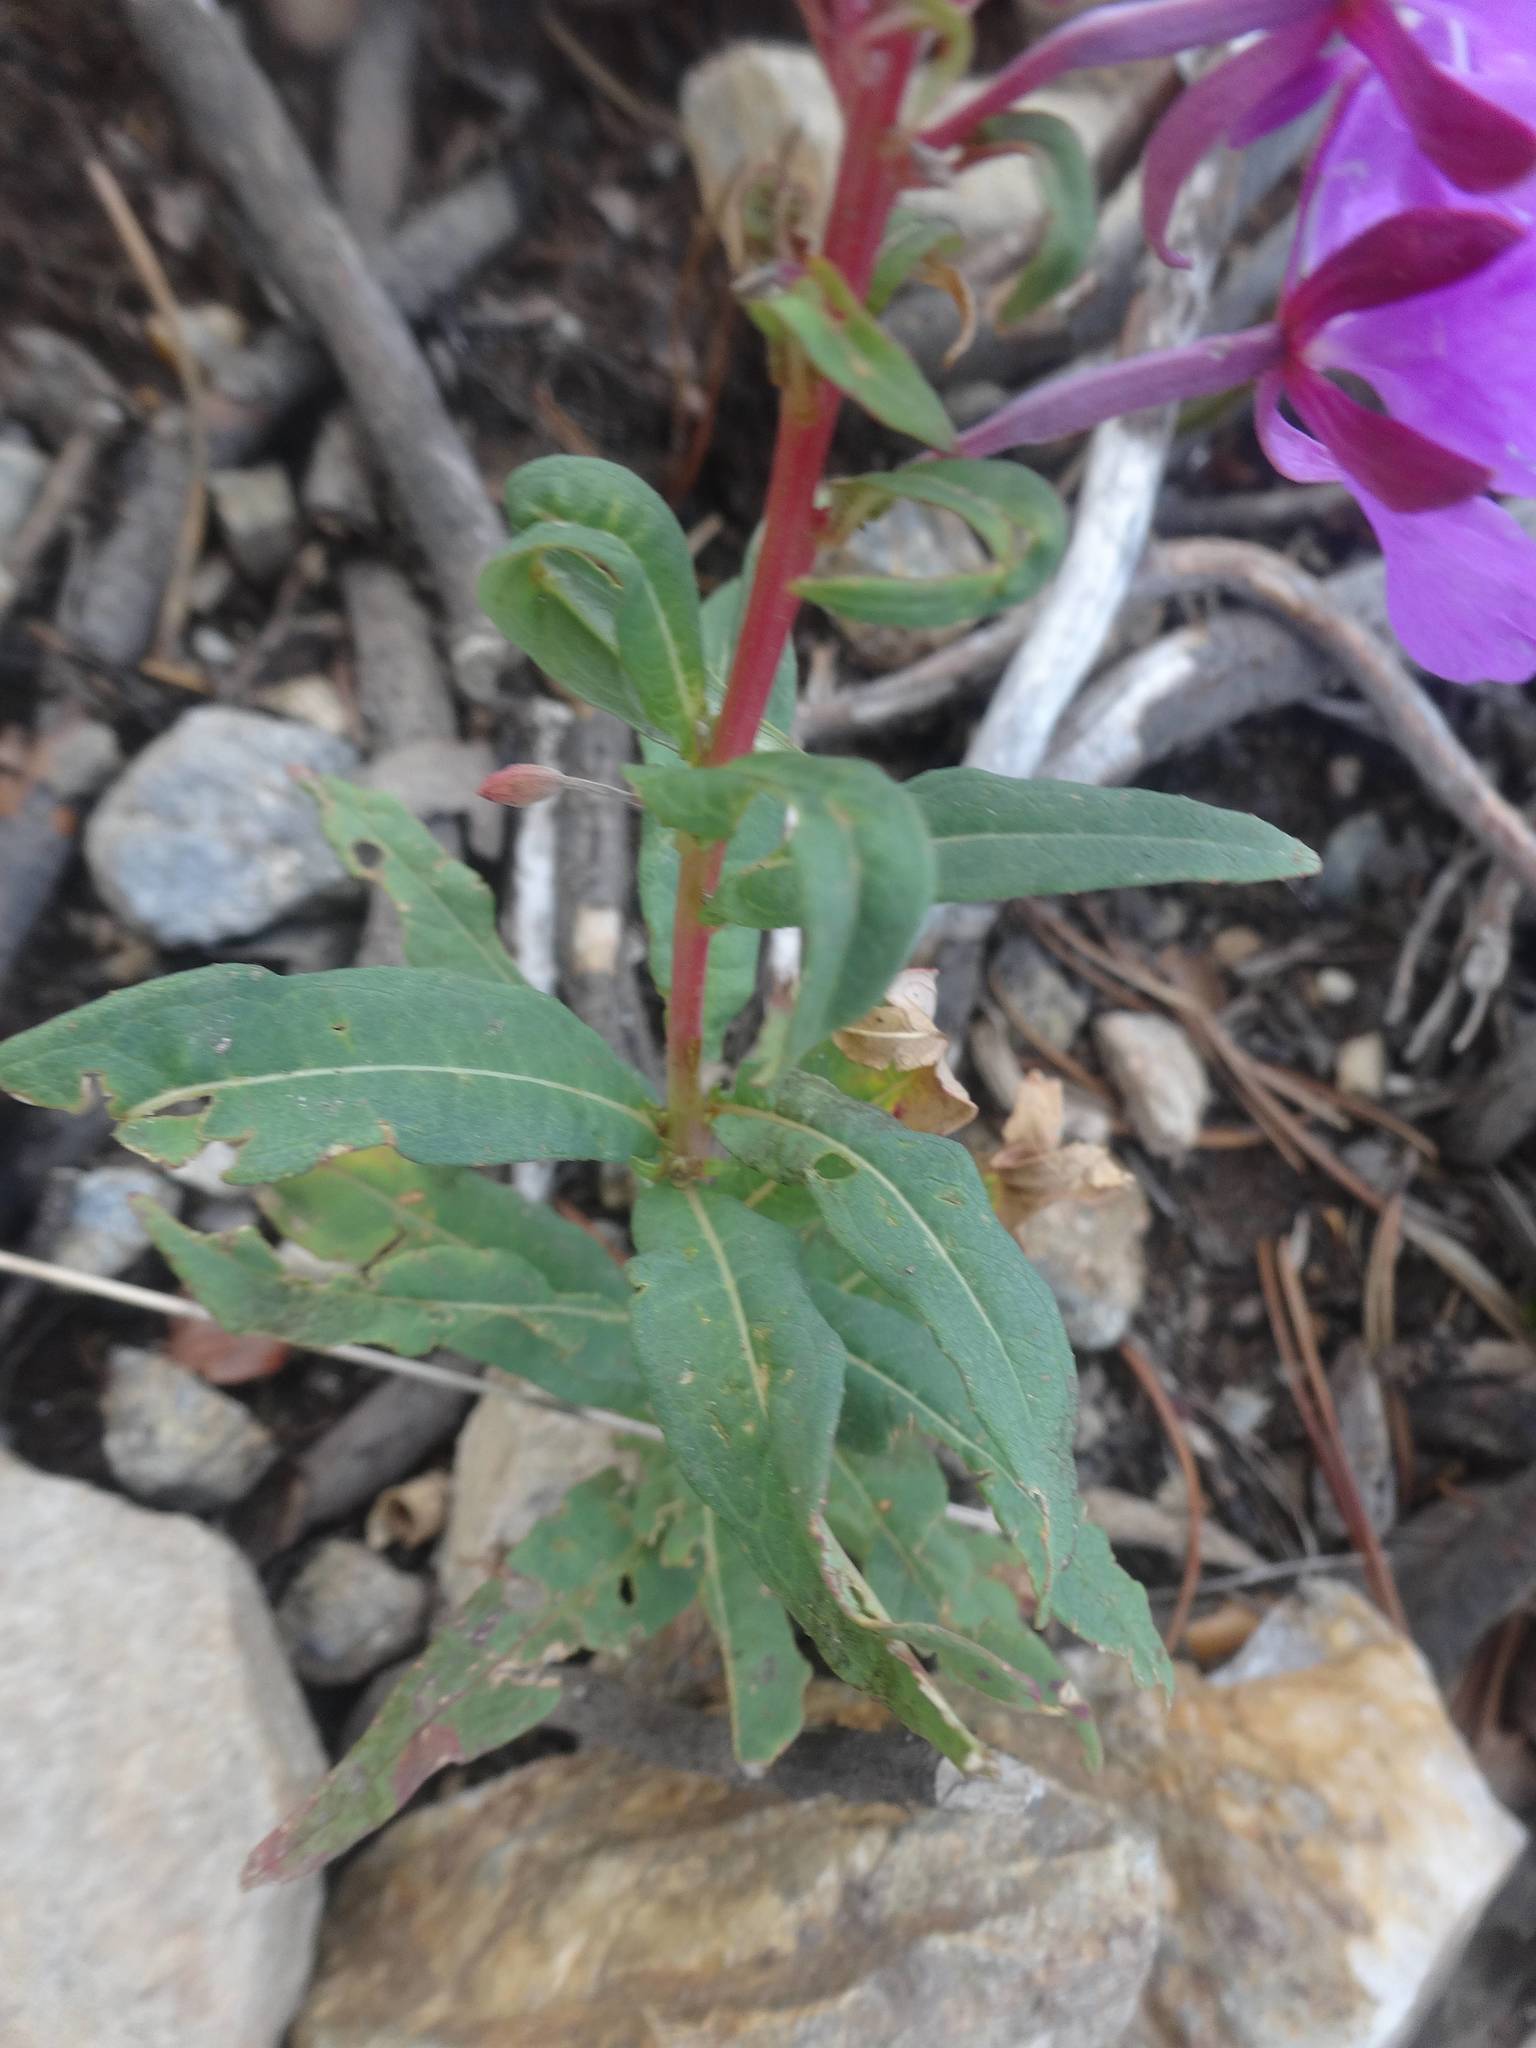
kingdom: Plantae
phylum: Tracheophyta
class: Magnoliopsida
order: Myrtales
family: Onagraceae
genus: Chamaenerion
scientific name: Chamaenerion angustifolium
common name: Fireweed
